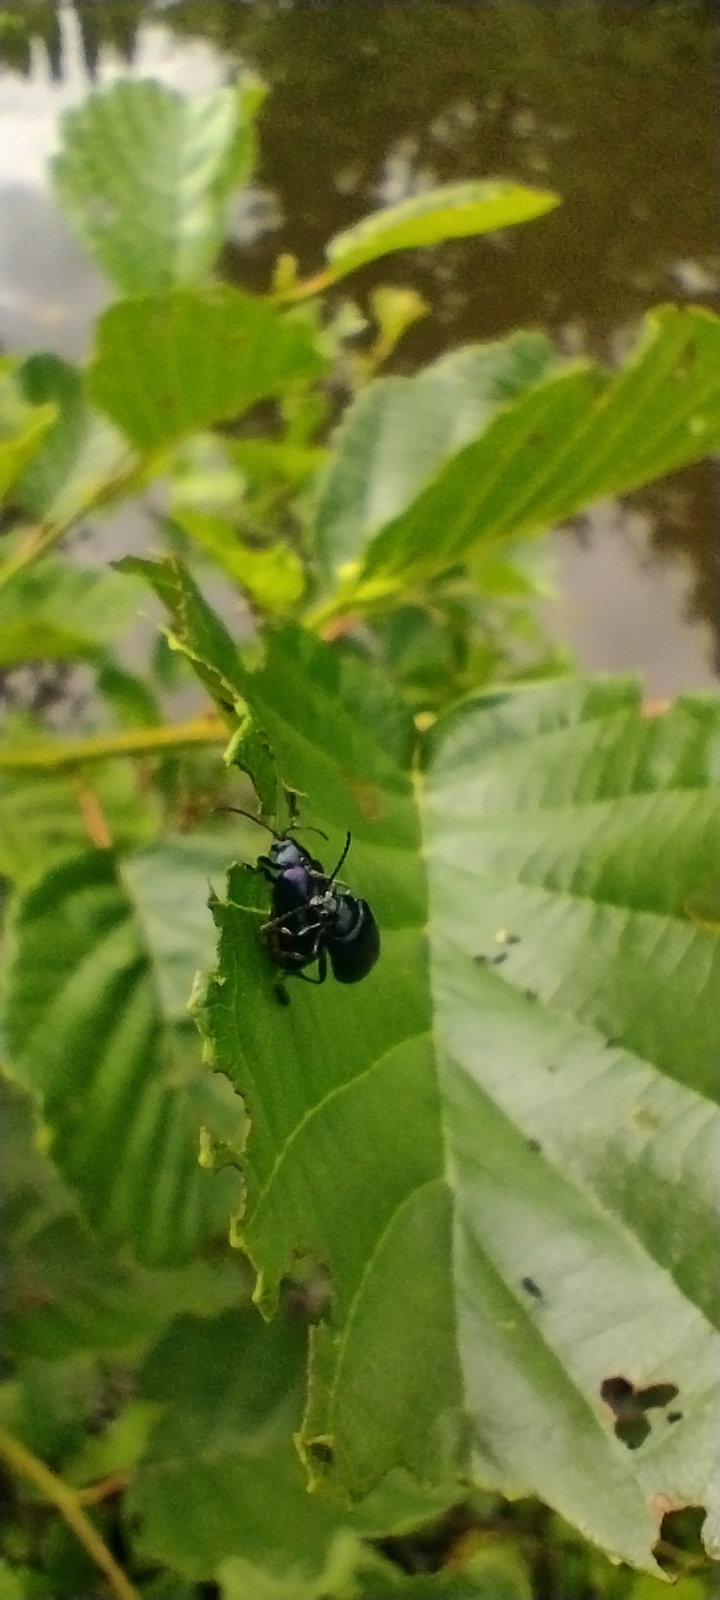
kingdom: Animalia
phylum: Arthropoda
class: Insecta
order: Coleoptera
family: Chrysomelidae
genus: Agelastica
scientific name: Agelastica alni
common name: Alder leaf beetle
